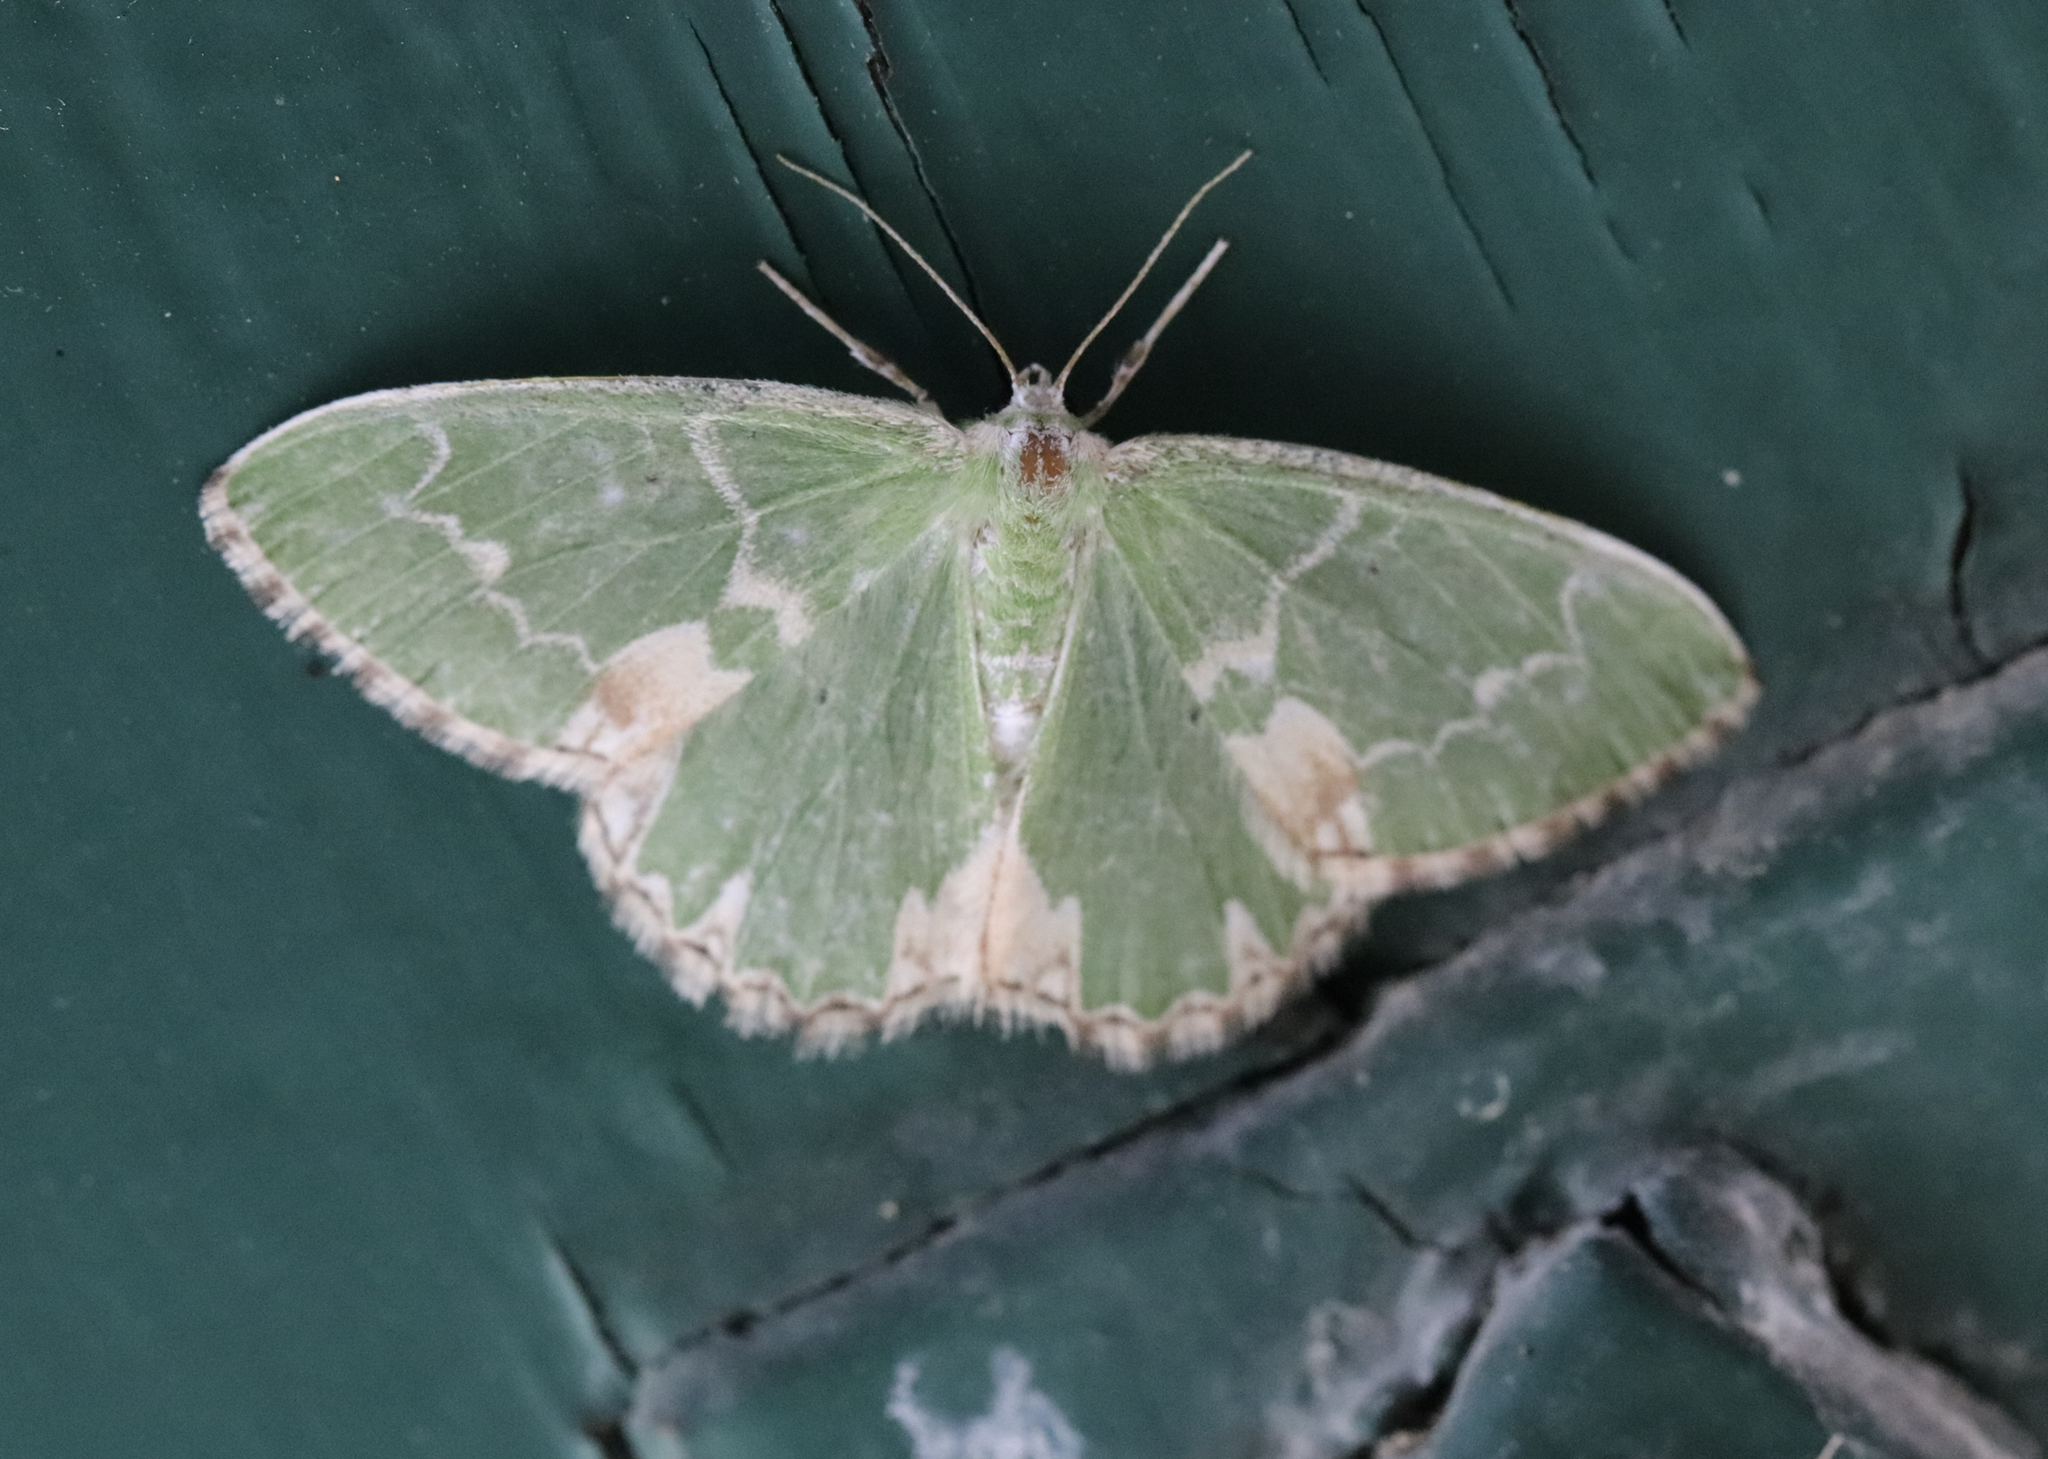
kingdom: Animalia
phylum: Arthropoda
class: Insecta
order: Lepidoptera
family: Geometridae
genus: Comibaena
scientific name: Comibaena bajularia
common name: Blotched emerald
